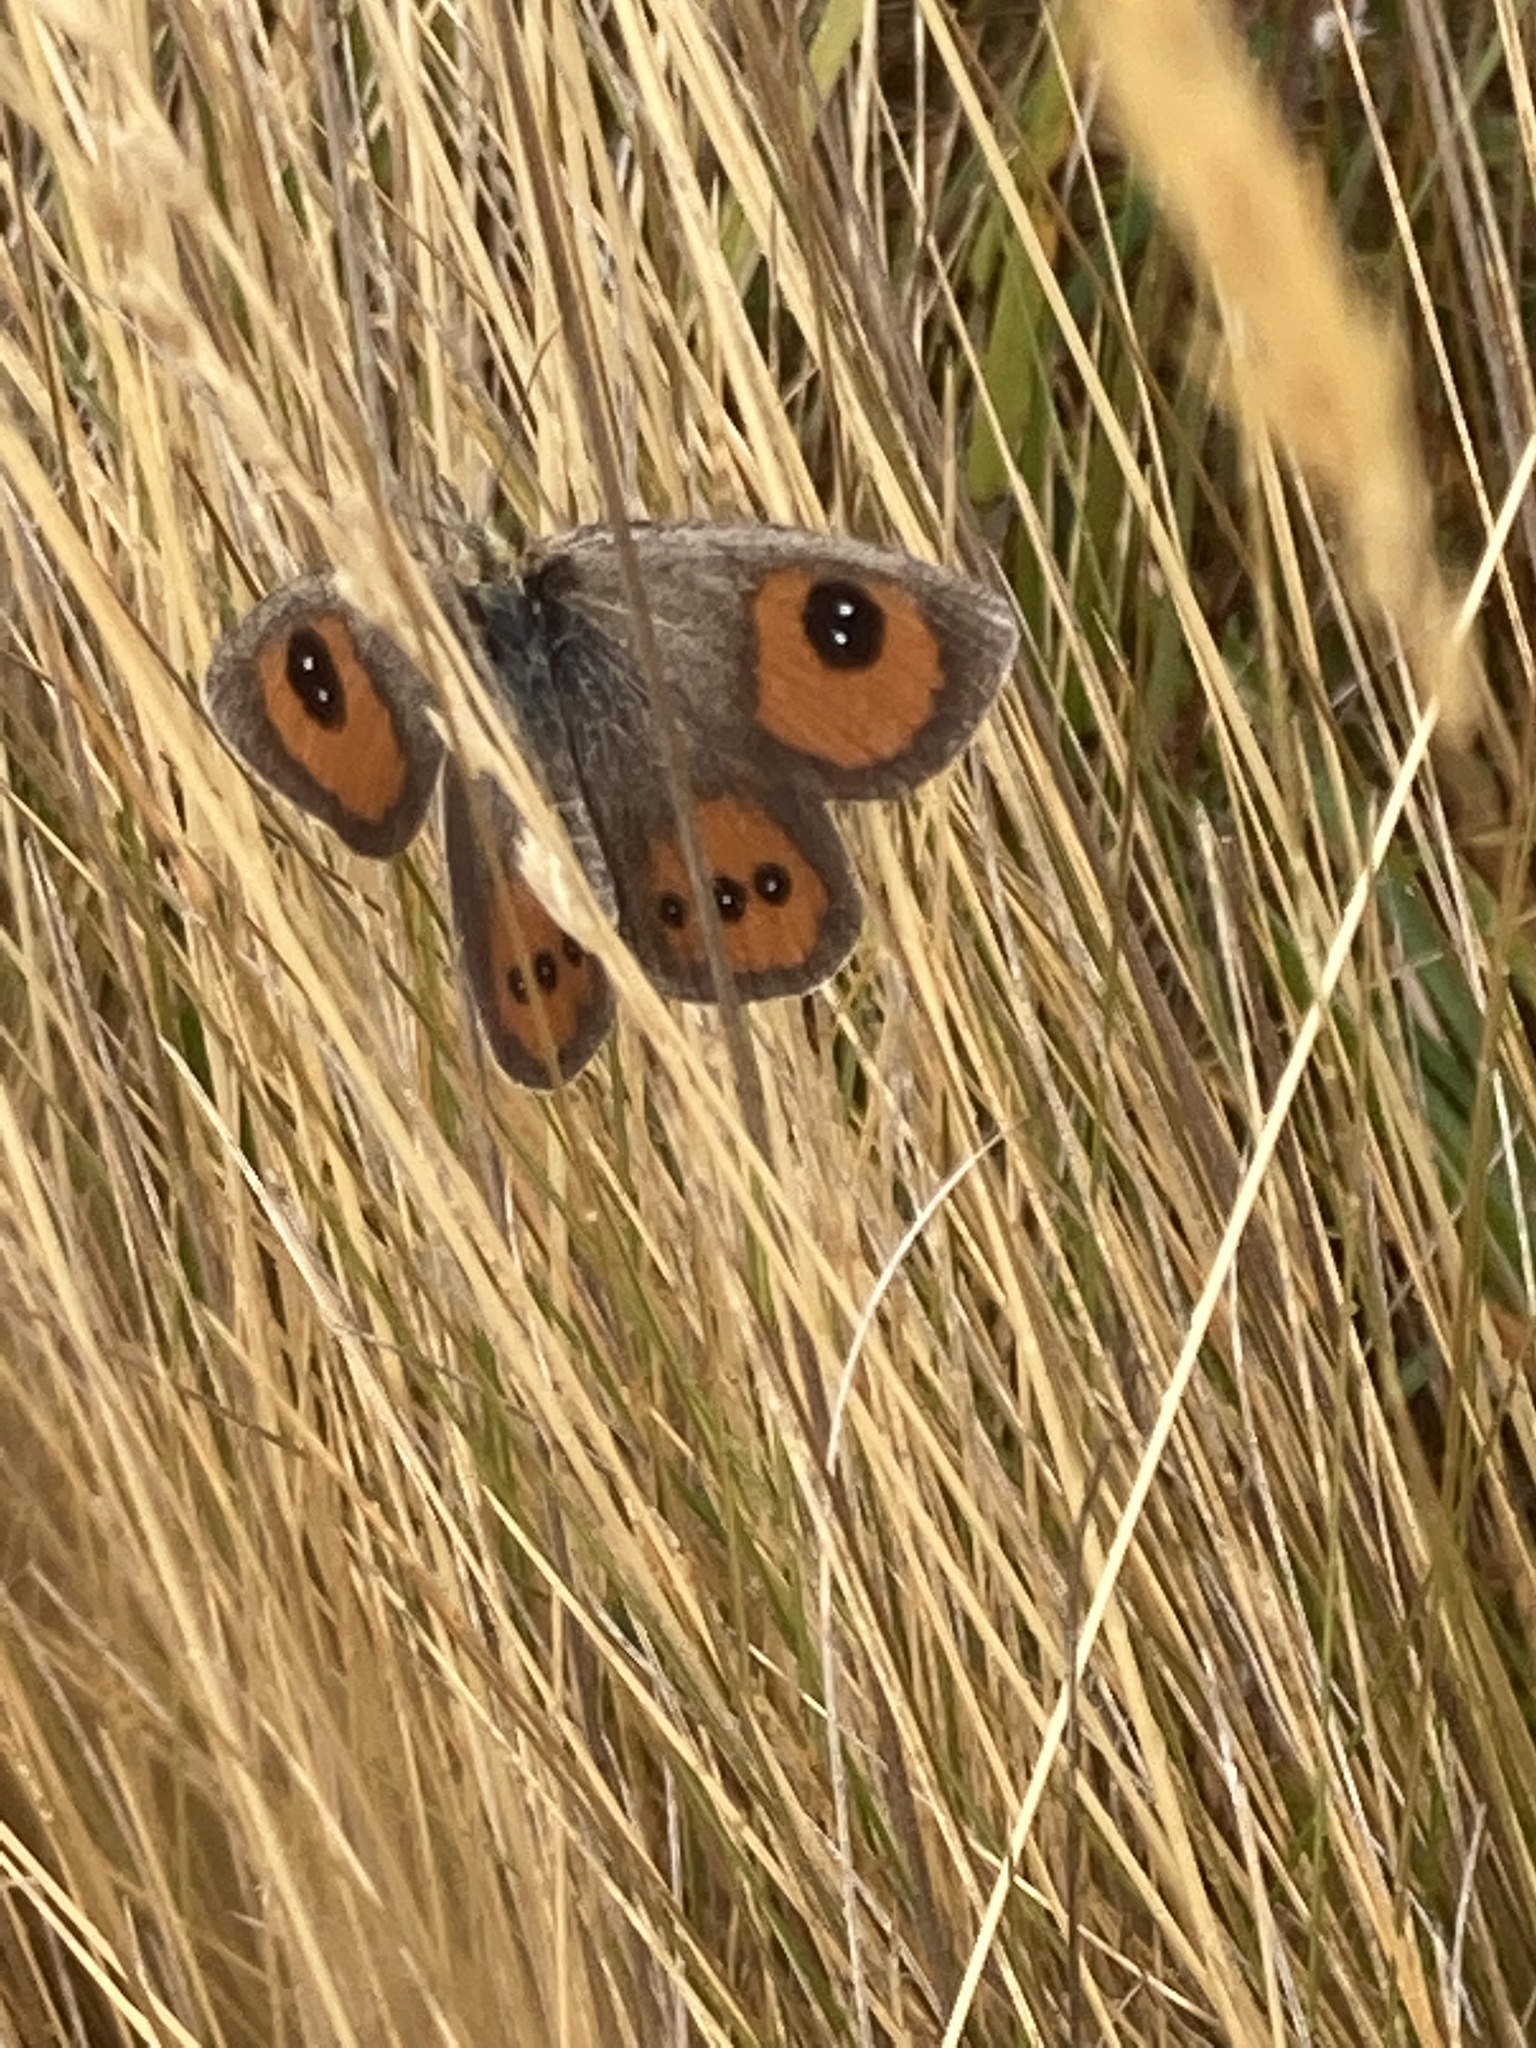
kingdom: Animalia
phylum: Arthropoda
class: Insecta
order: Lepidoptera
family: Nymphalidae
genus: Argyrophenga
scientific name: Argyrophenga antipodum
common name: Common tussock butterfly
